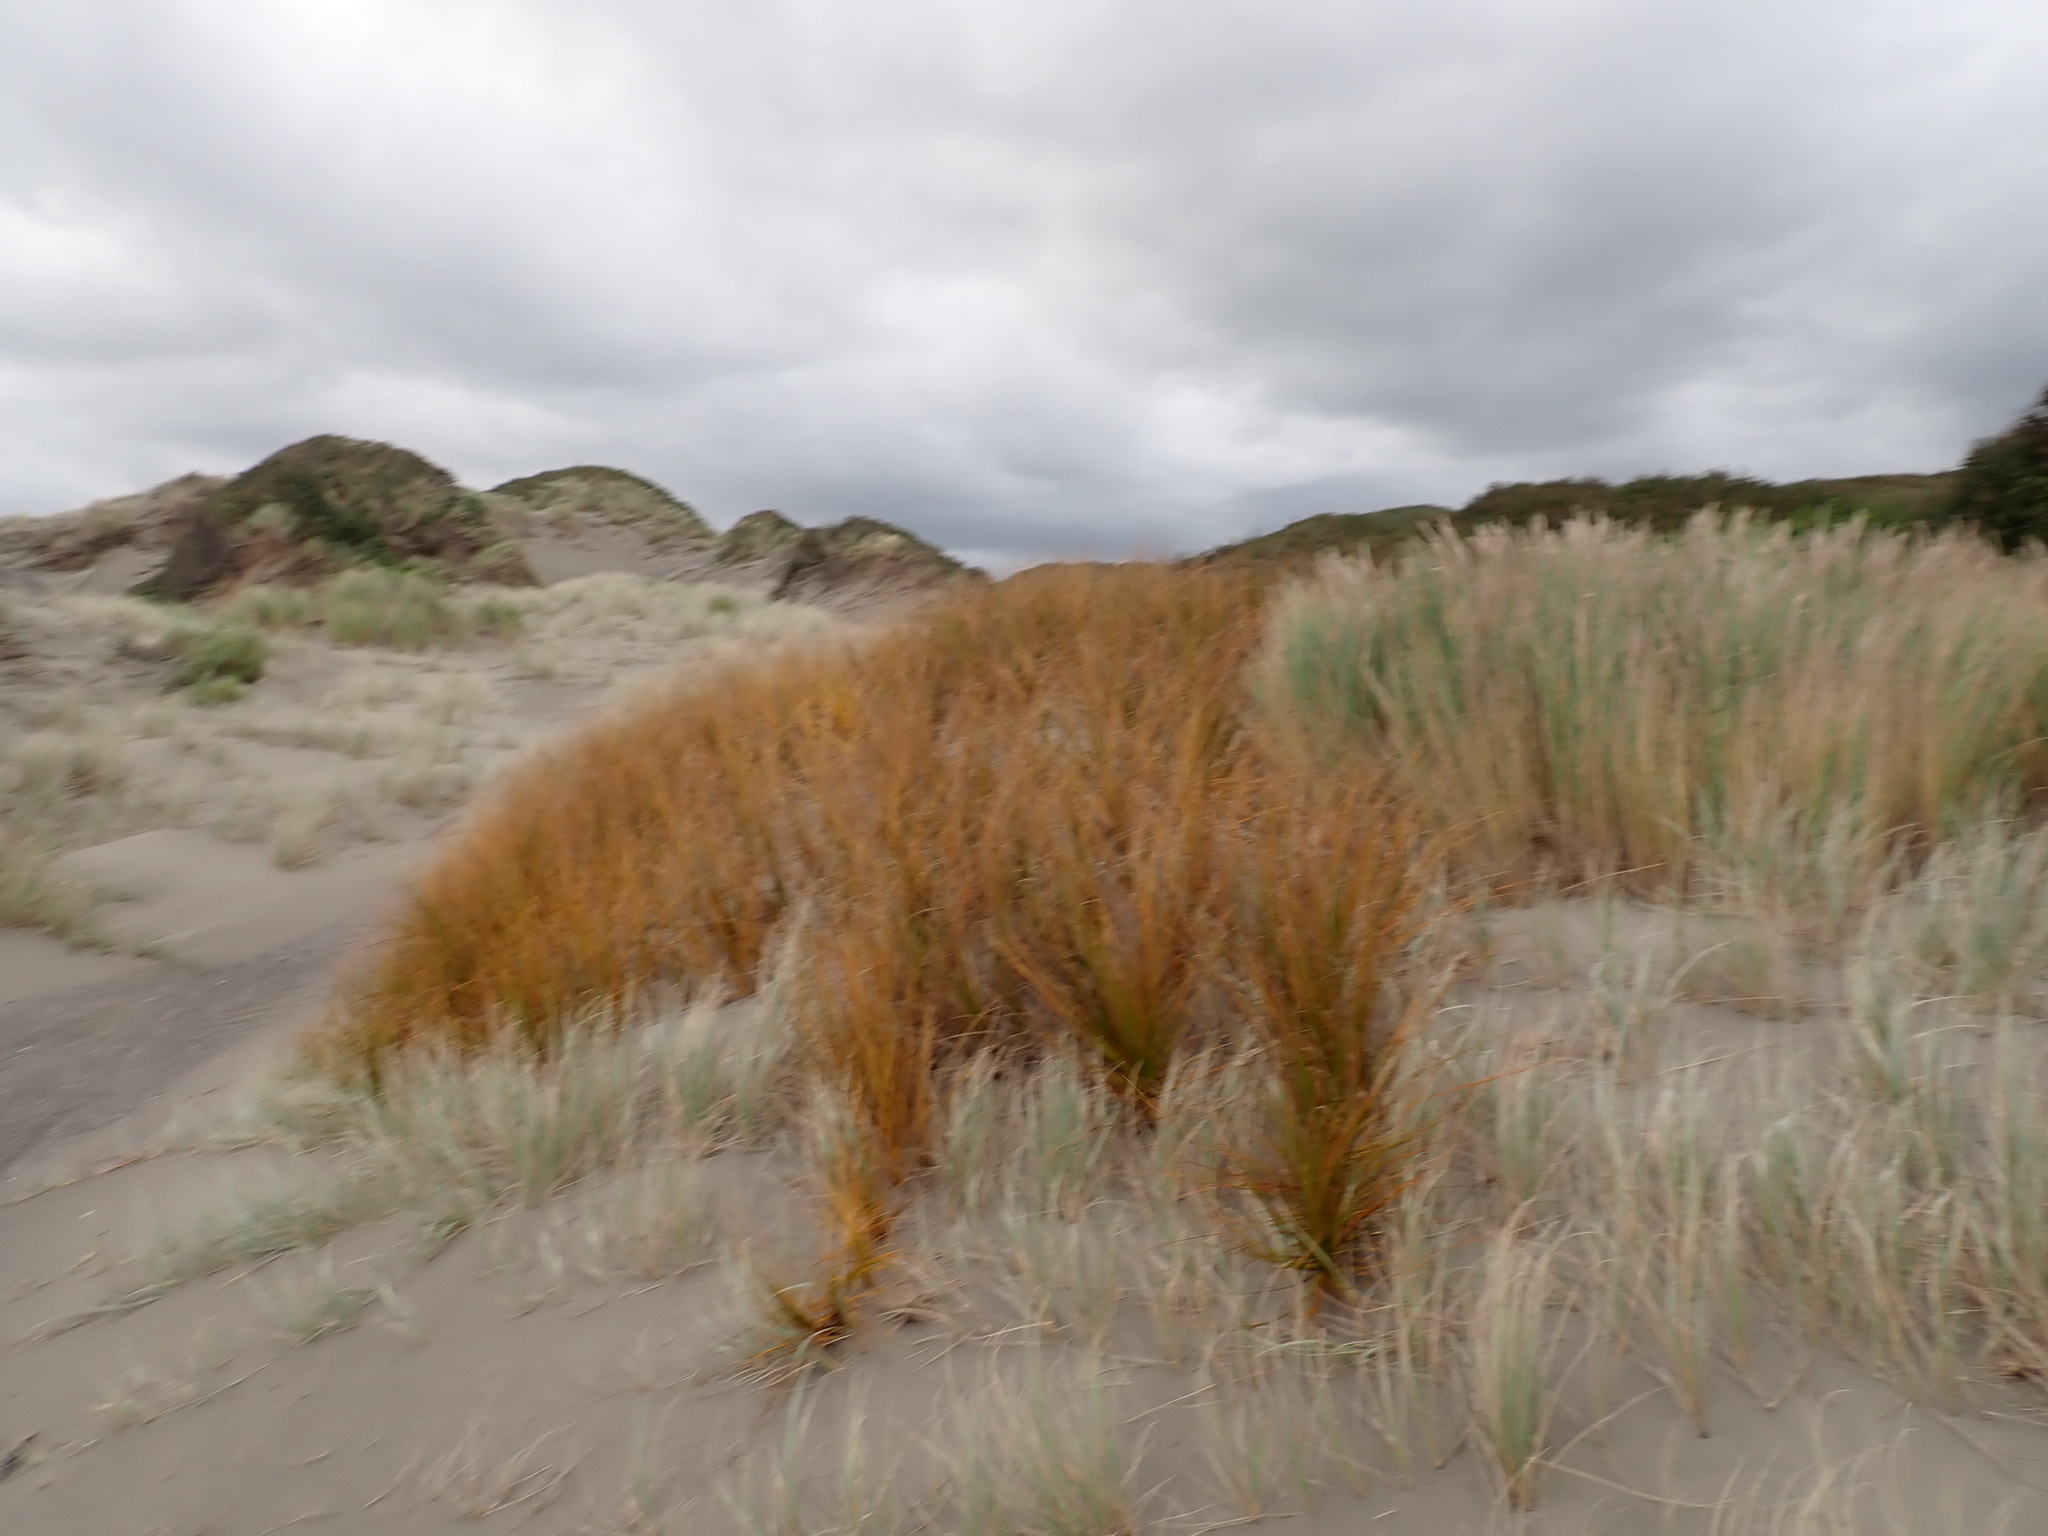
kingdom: Plantae
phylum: Tracheophyta
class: Liliopsida
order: Poales
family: Cyperaceae
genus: Ficinia
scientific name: Ficinia spiralis
